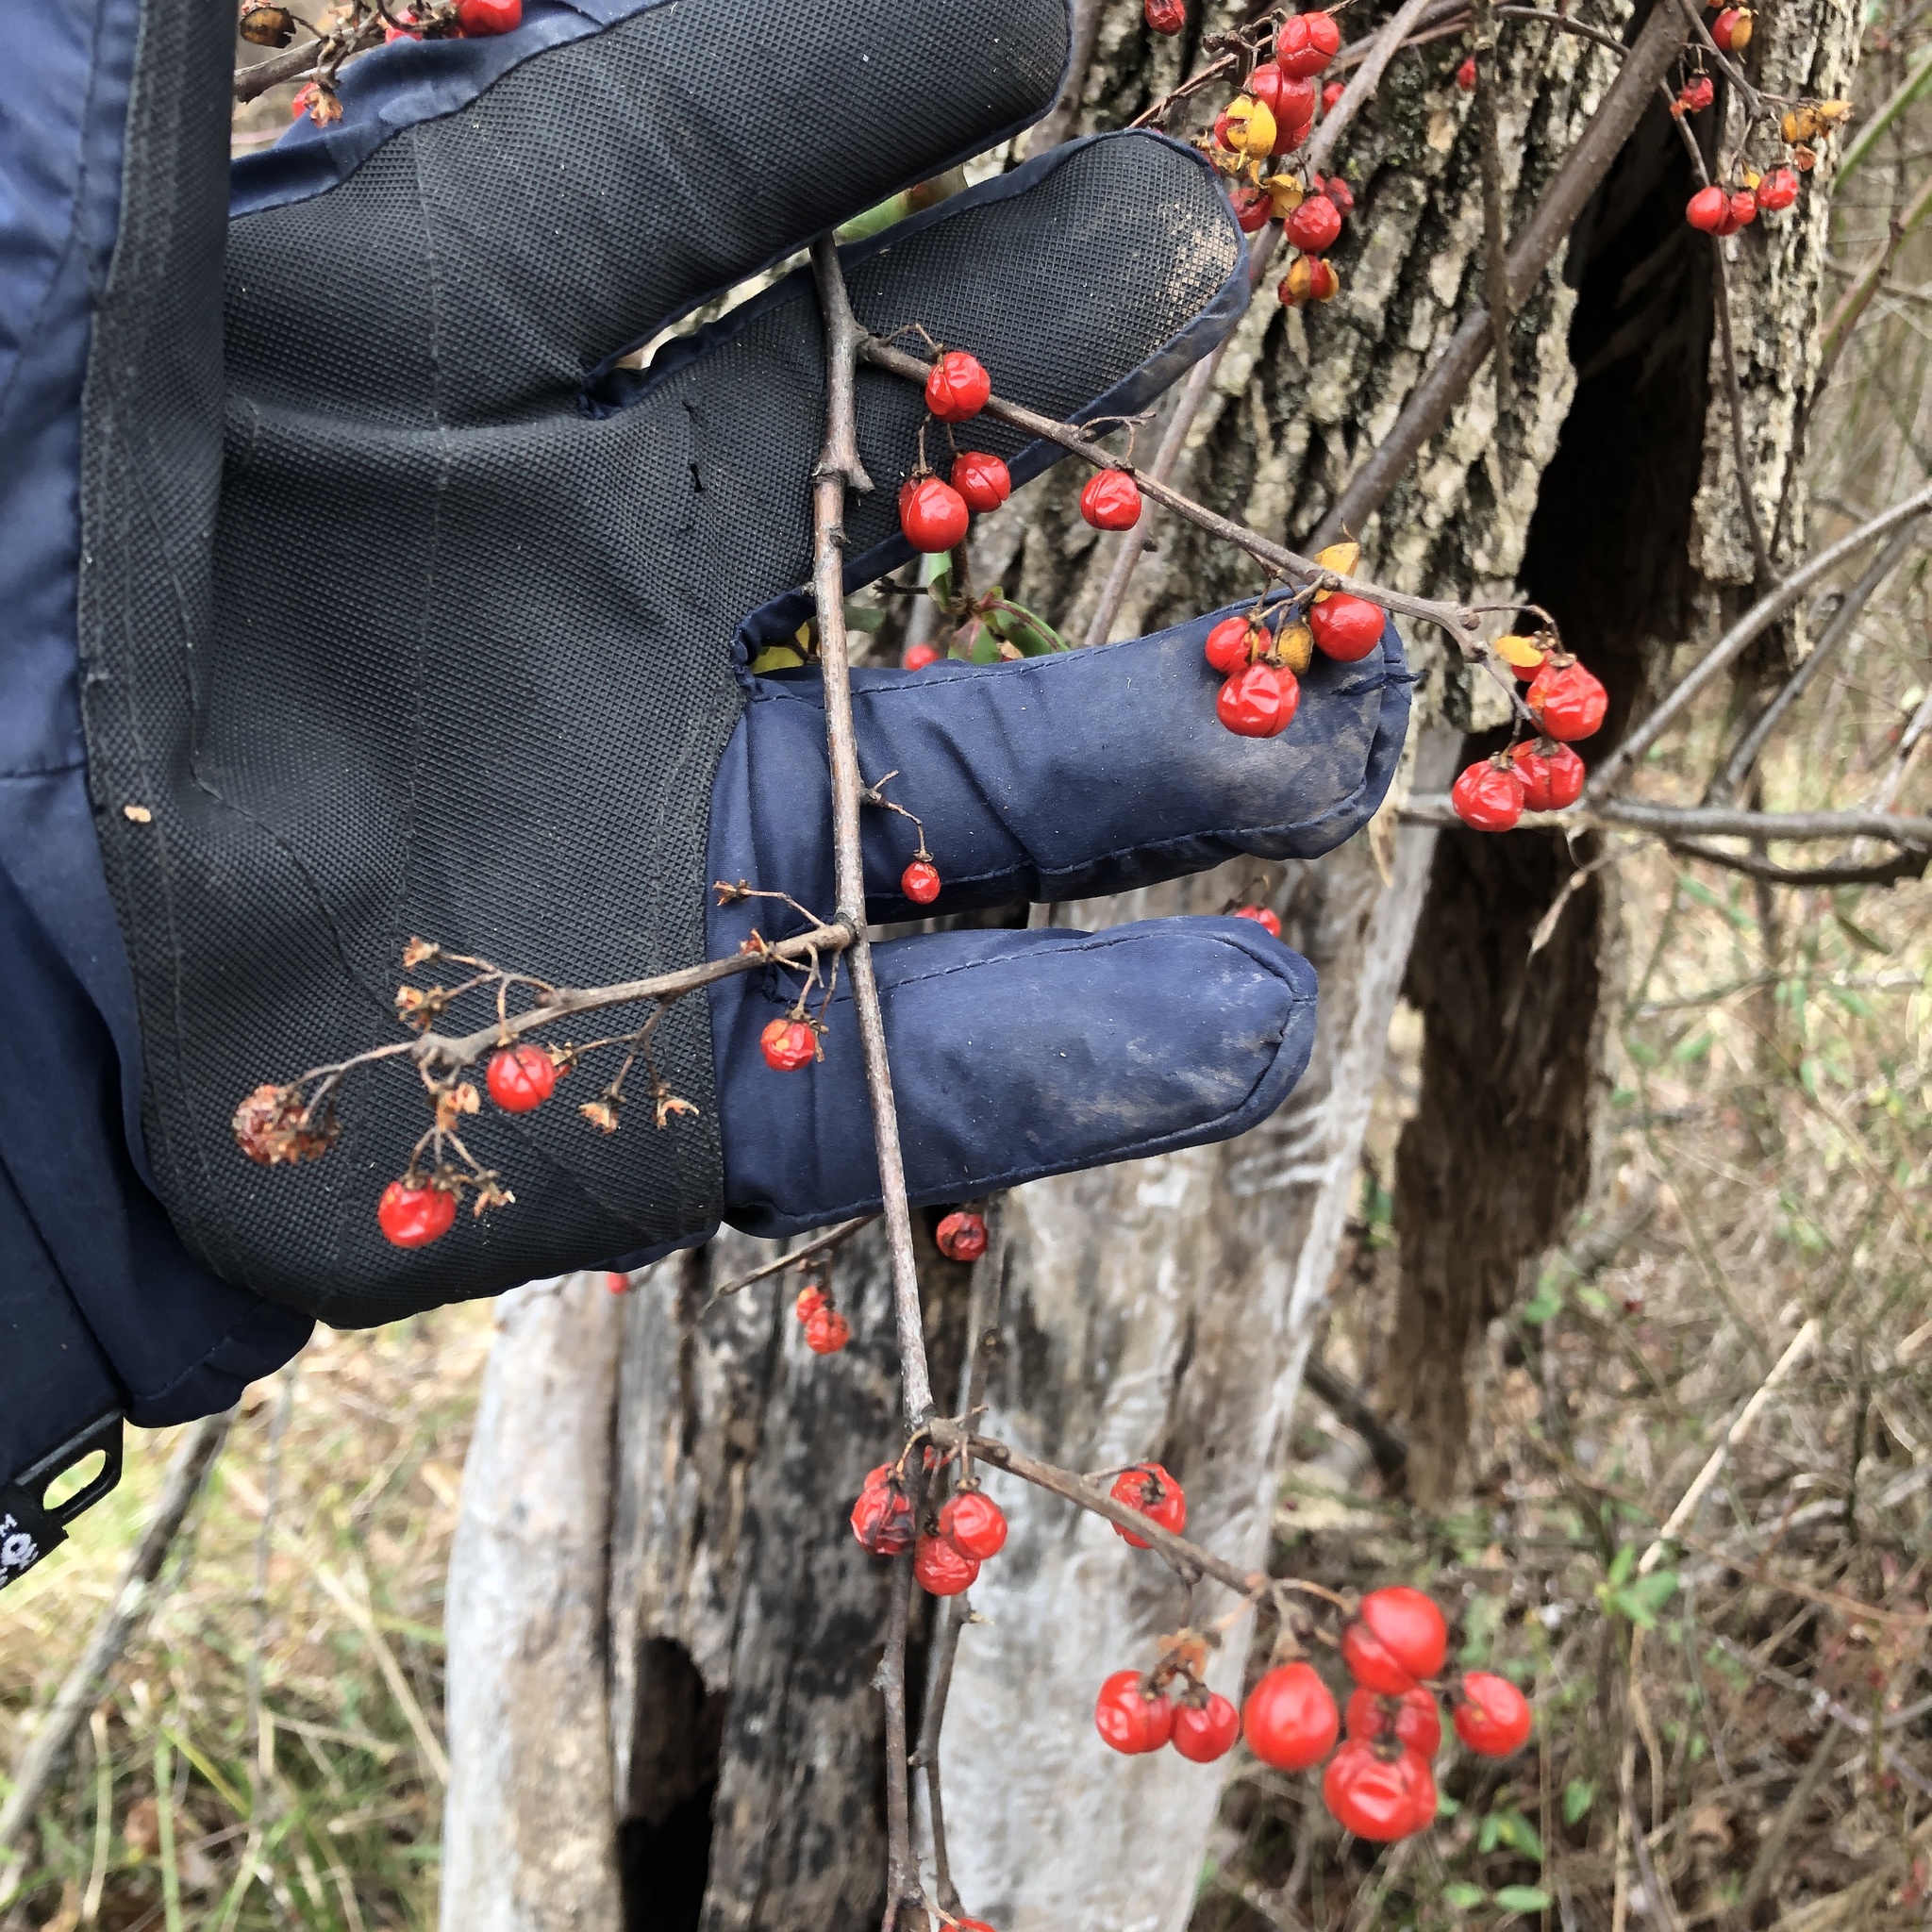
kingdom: Plantae
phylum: Tracheophyta
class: Magnoliopsida
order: Celastrales
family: Celastraceae
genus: Celastrus
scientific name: Celastrus orbiculatus
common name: Oriental bittersweet
